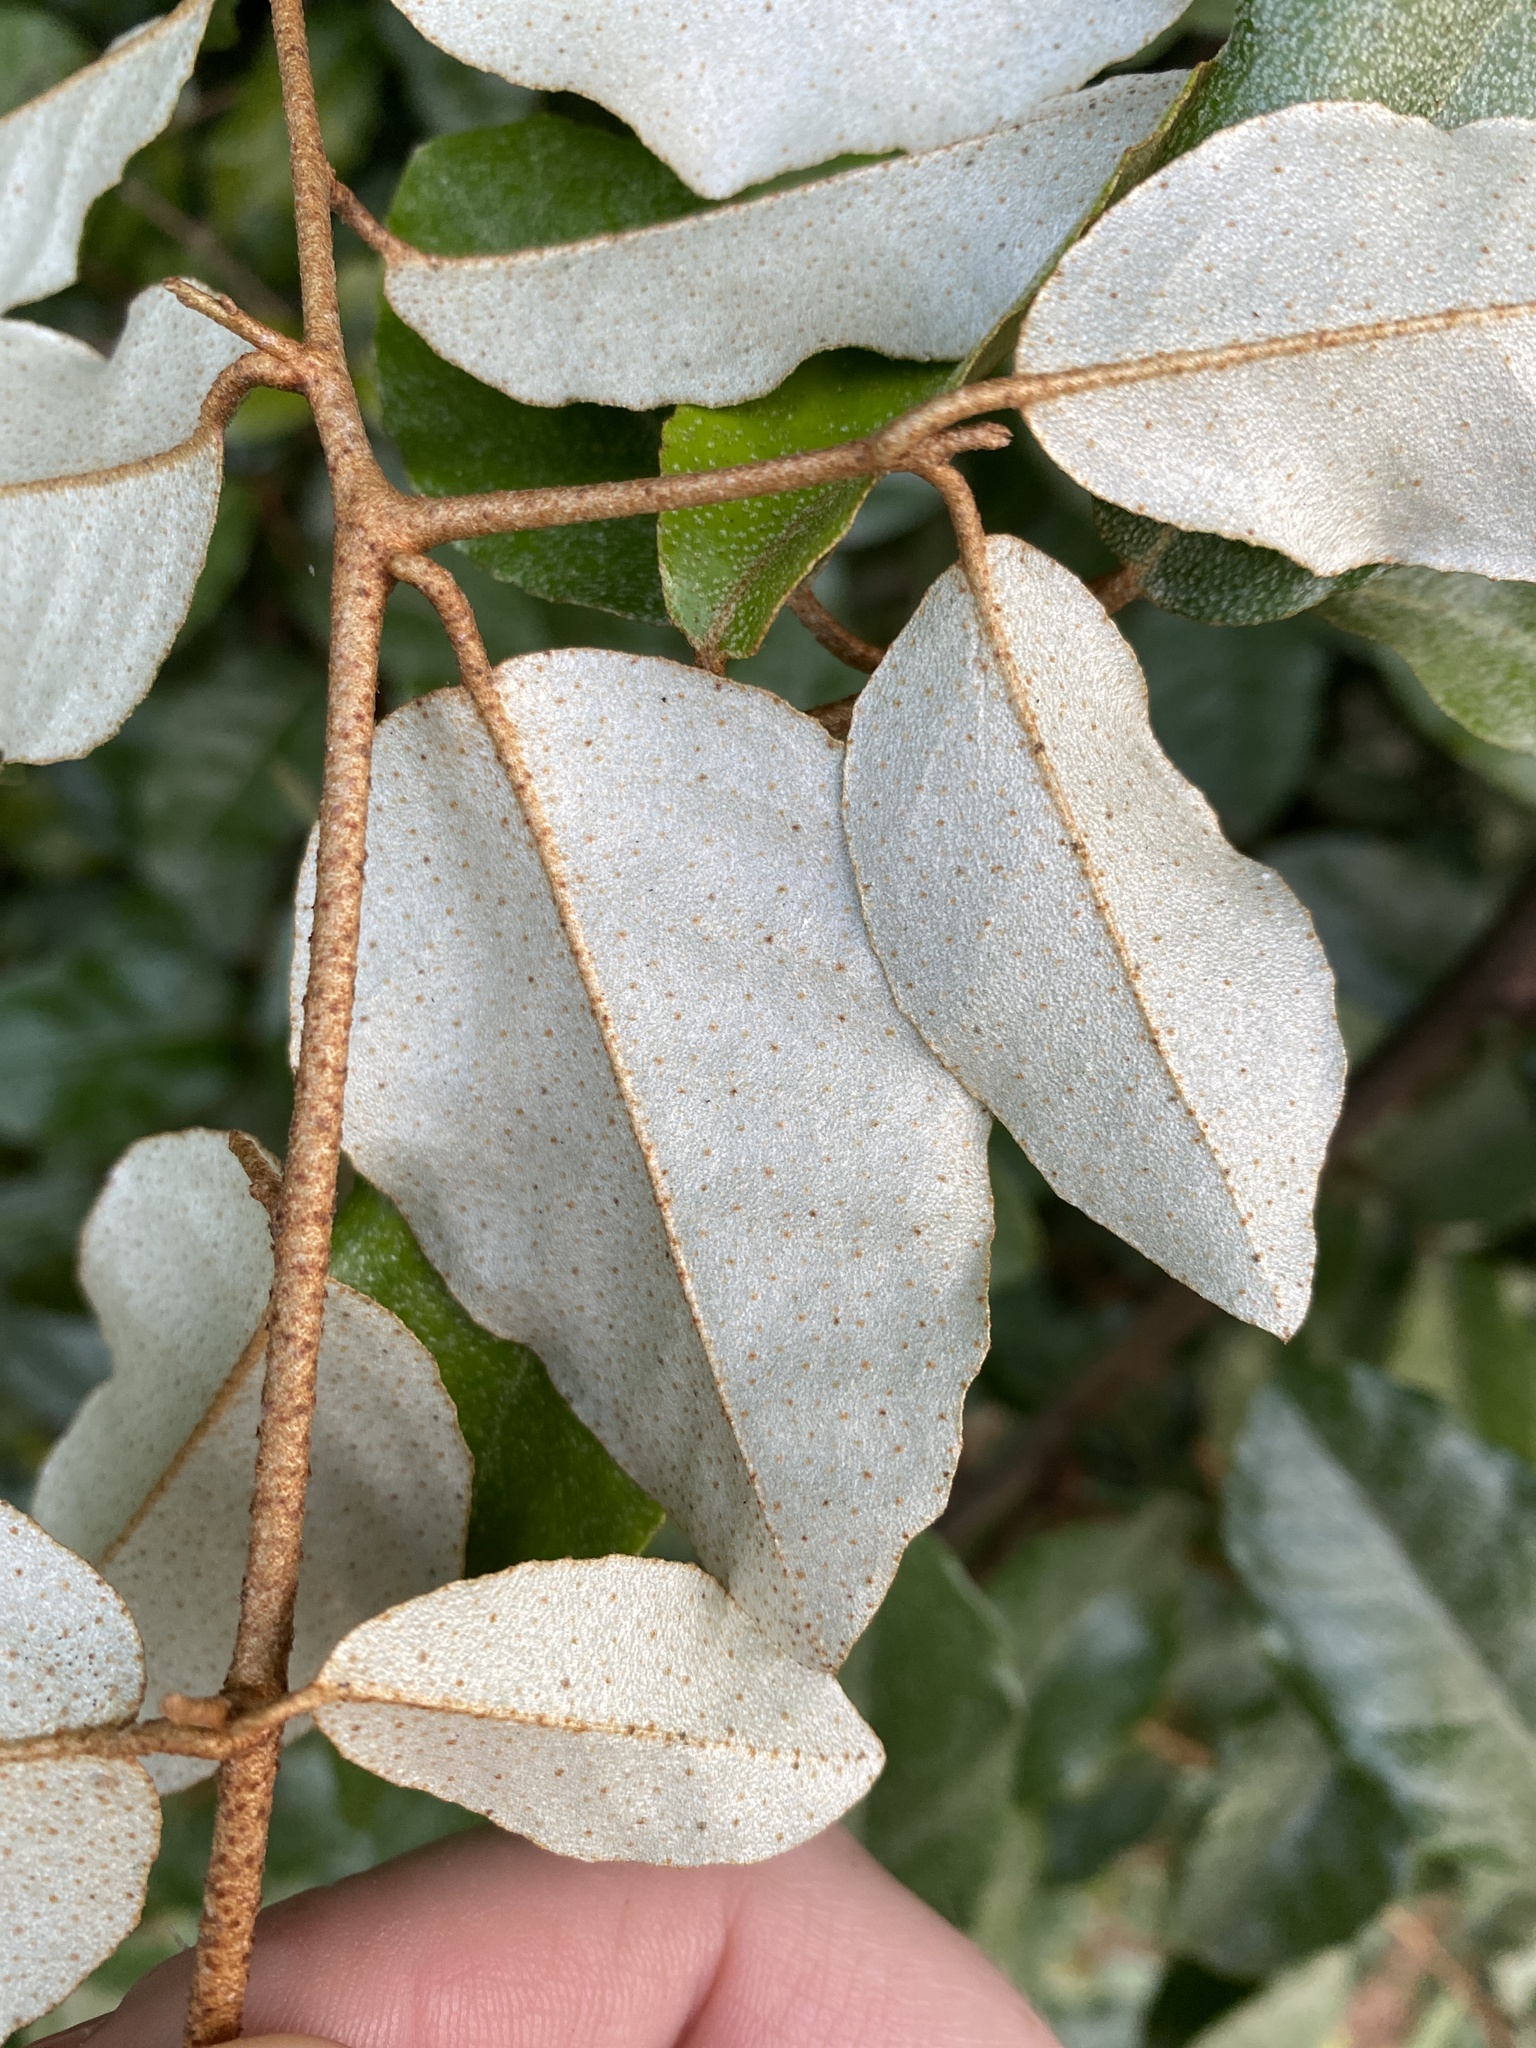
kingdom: Plantae
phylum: Tracheophyta
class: Magnoliopsida
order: Rosales
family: Elaeagnaceae
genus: Elaeagnus
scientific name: Elaeagnus pungens
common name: Spiny oleaster
